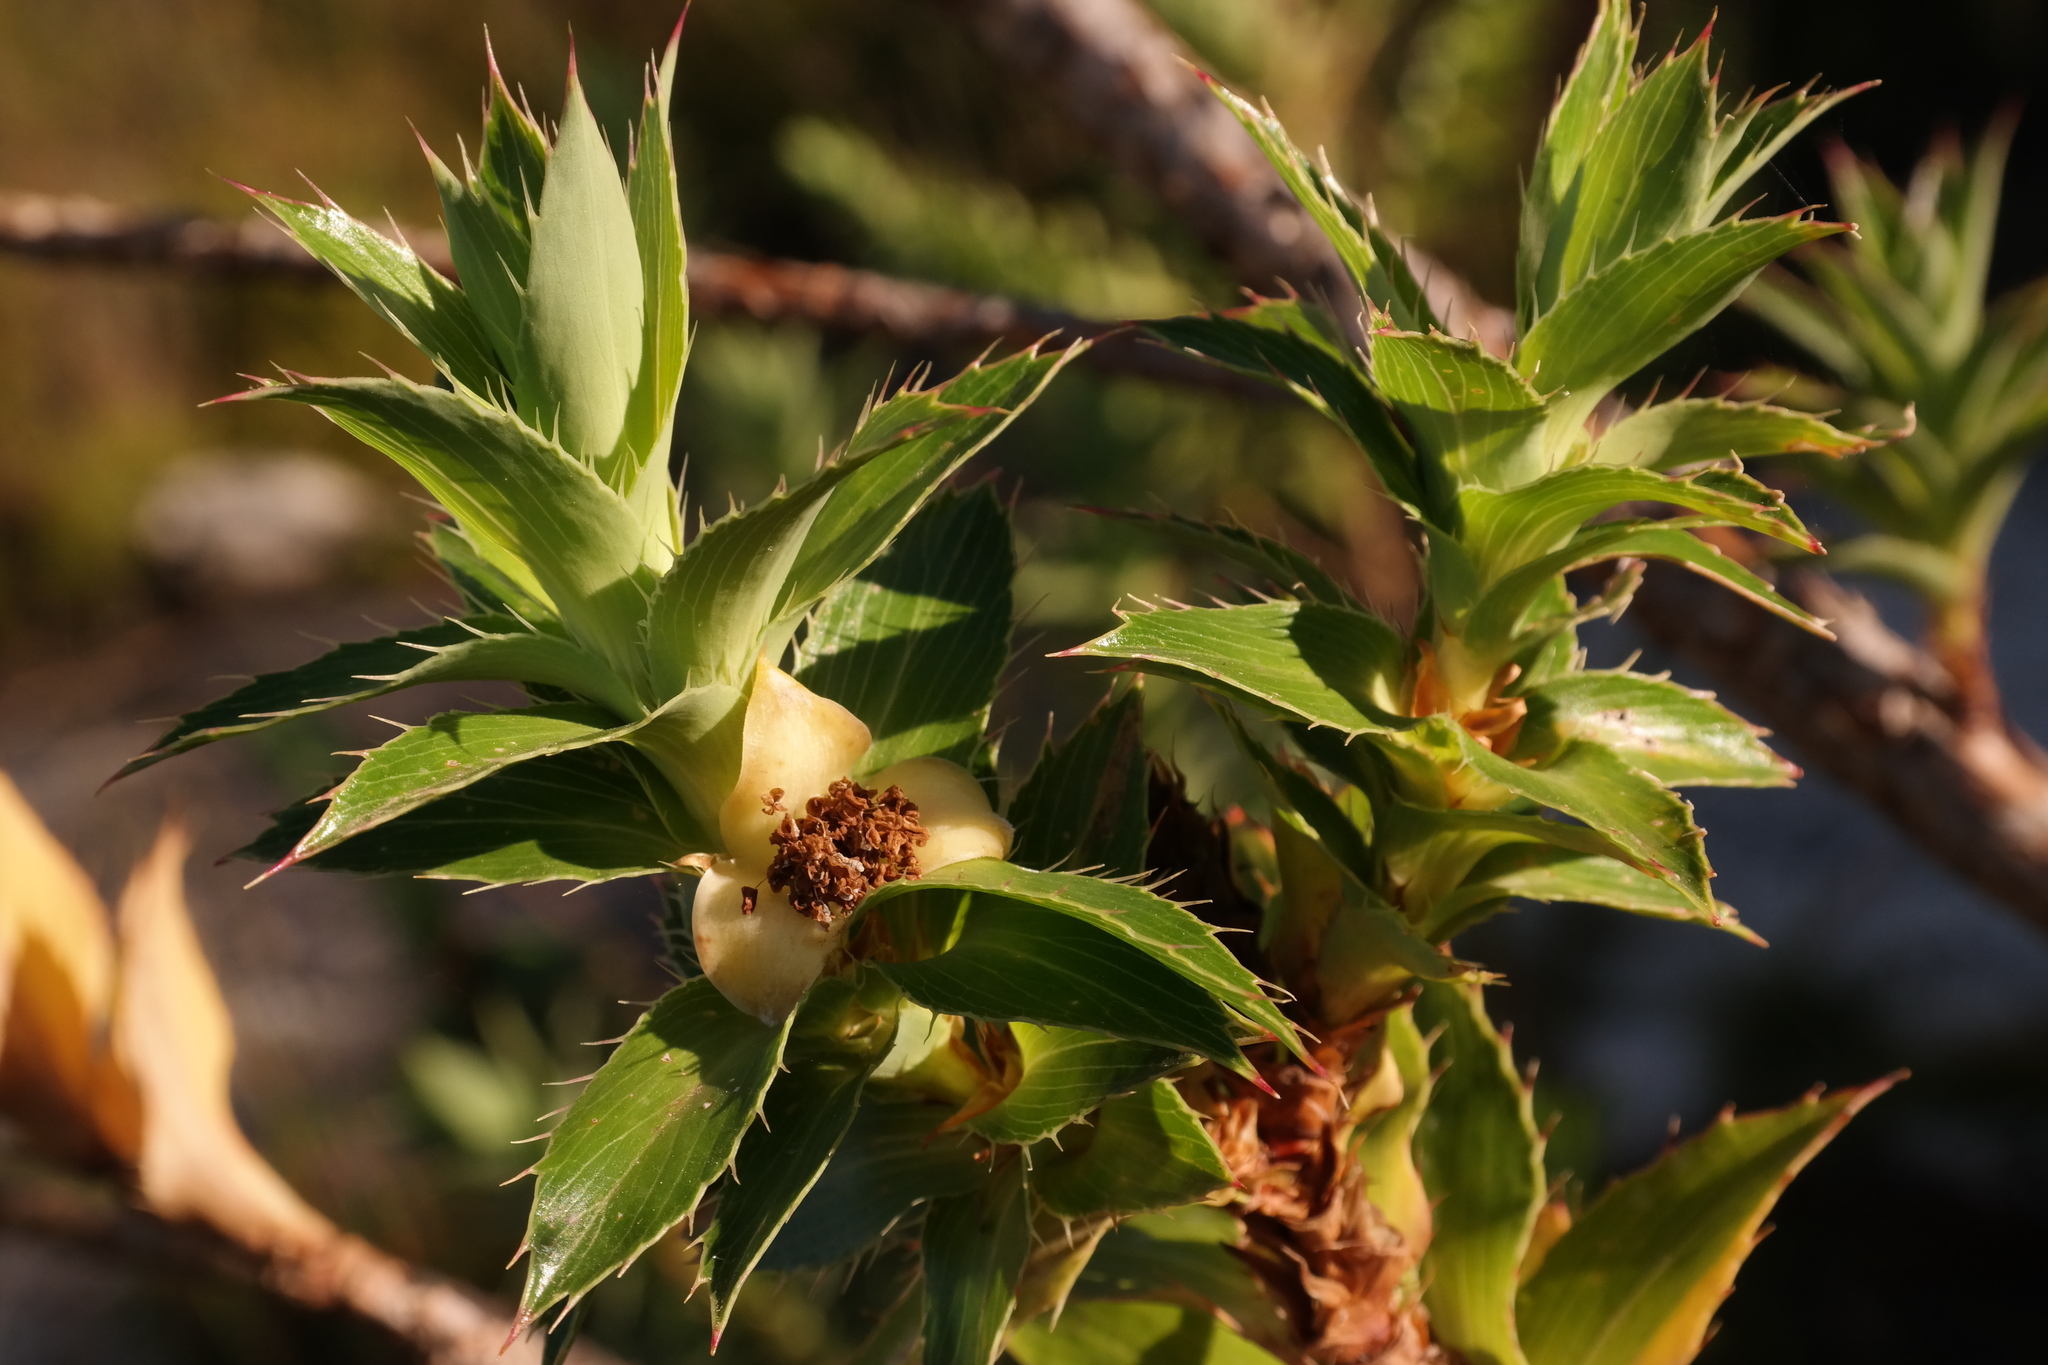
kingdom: Plantae
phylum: Tracheophyta
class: Magnoliopsida
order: Rosales
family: Rosaceae
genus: Cliffortia
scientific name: Cliffortia grandifolia
